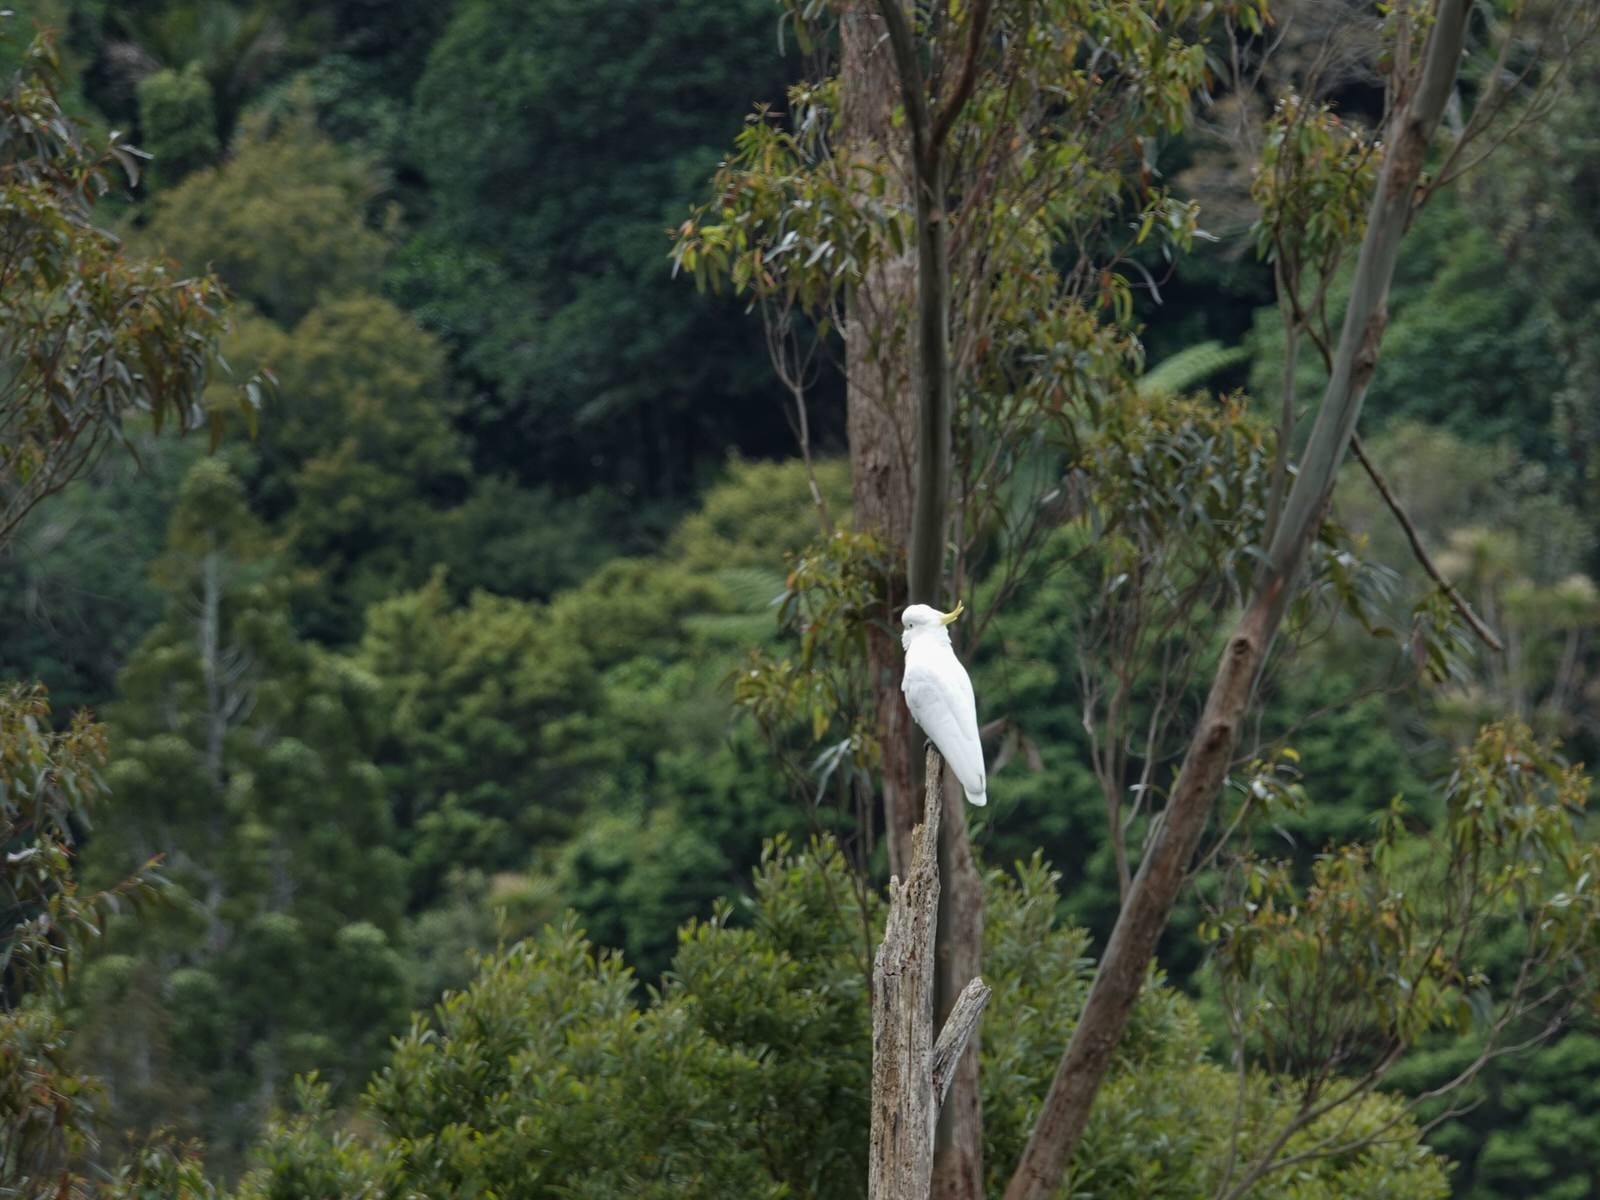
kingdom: Animalia
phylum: Chordata
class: Aves
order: Psittaciformes
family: Psittacidae
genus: Cacatua
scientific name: Cacatua galerita
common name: Sulphur-crested cockatoo
